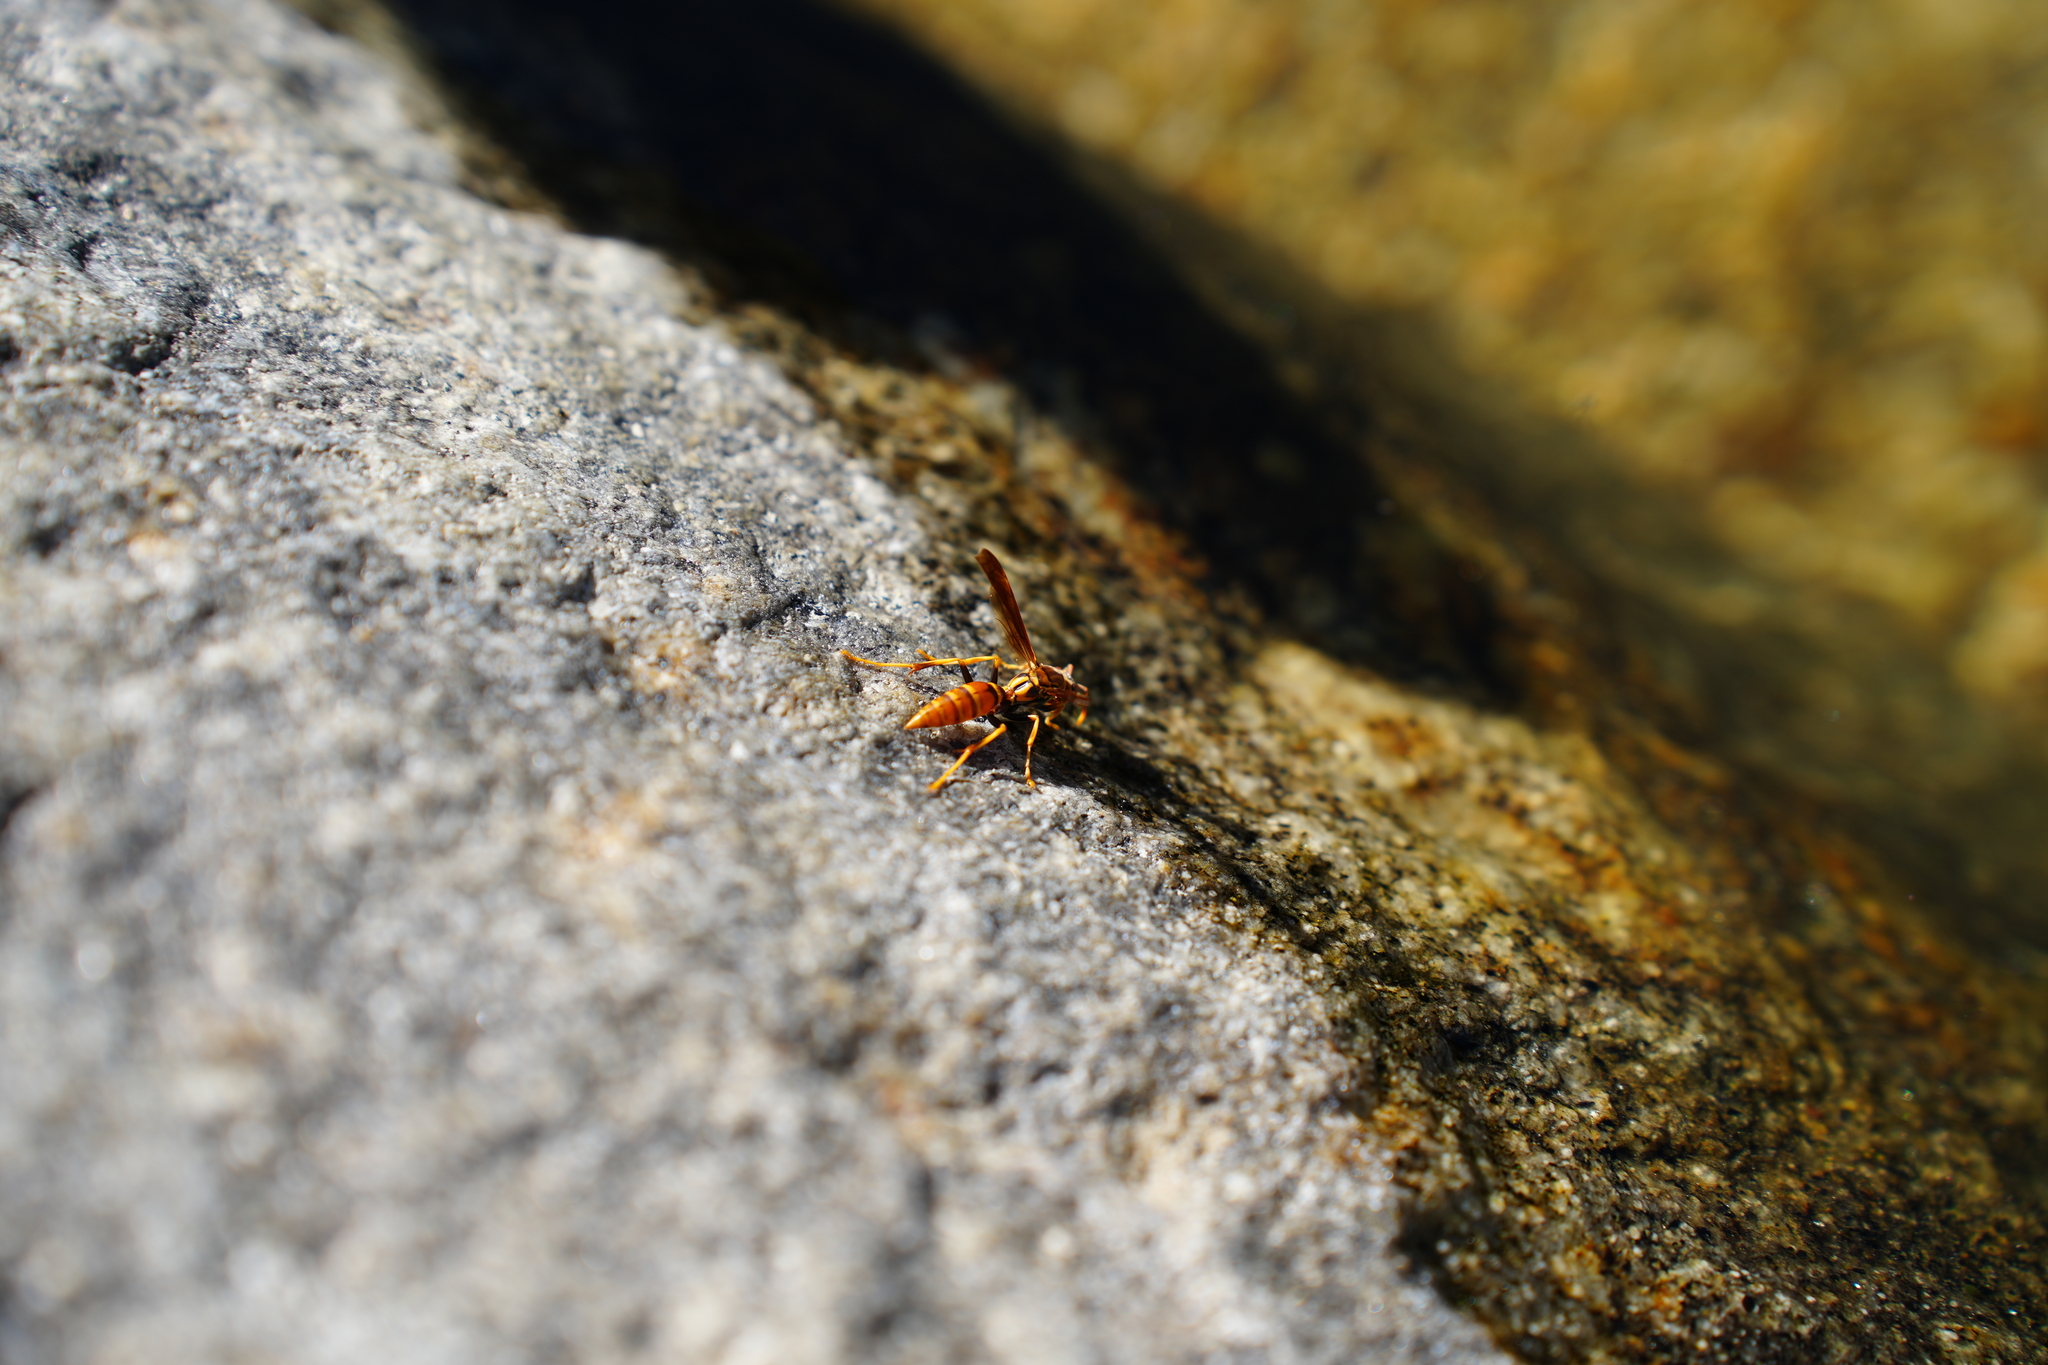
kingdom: Animalia
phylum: Arthropoda
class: Insecta
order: Hymenoptera
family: Eumenidae
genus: Polistes
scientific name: Polistes lineonotus
